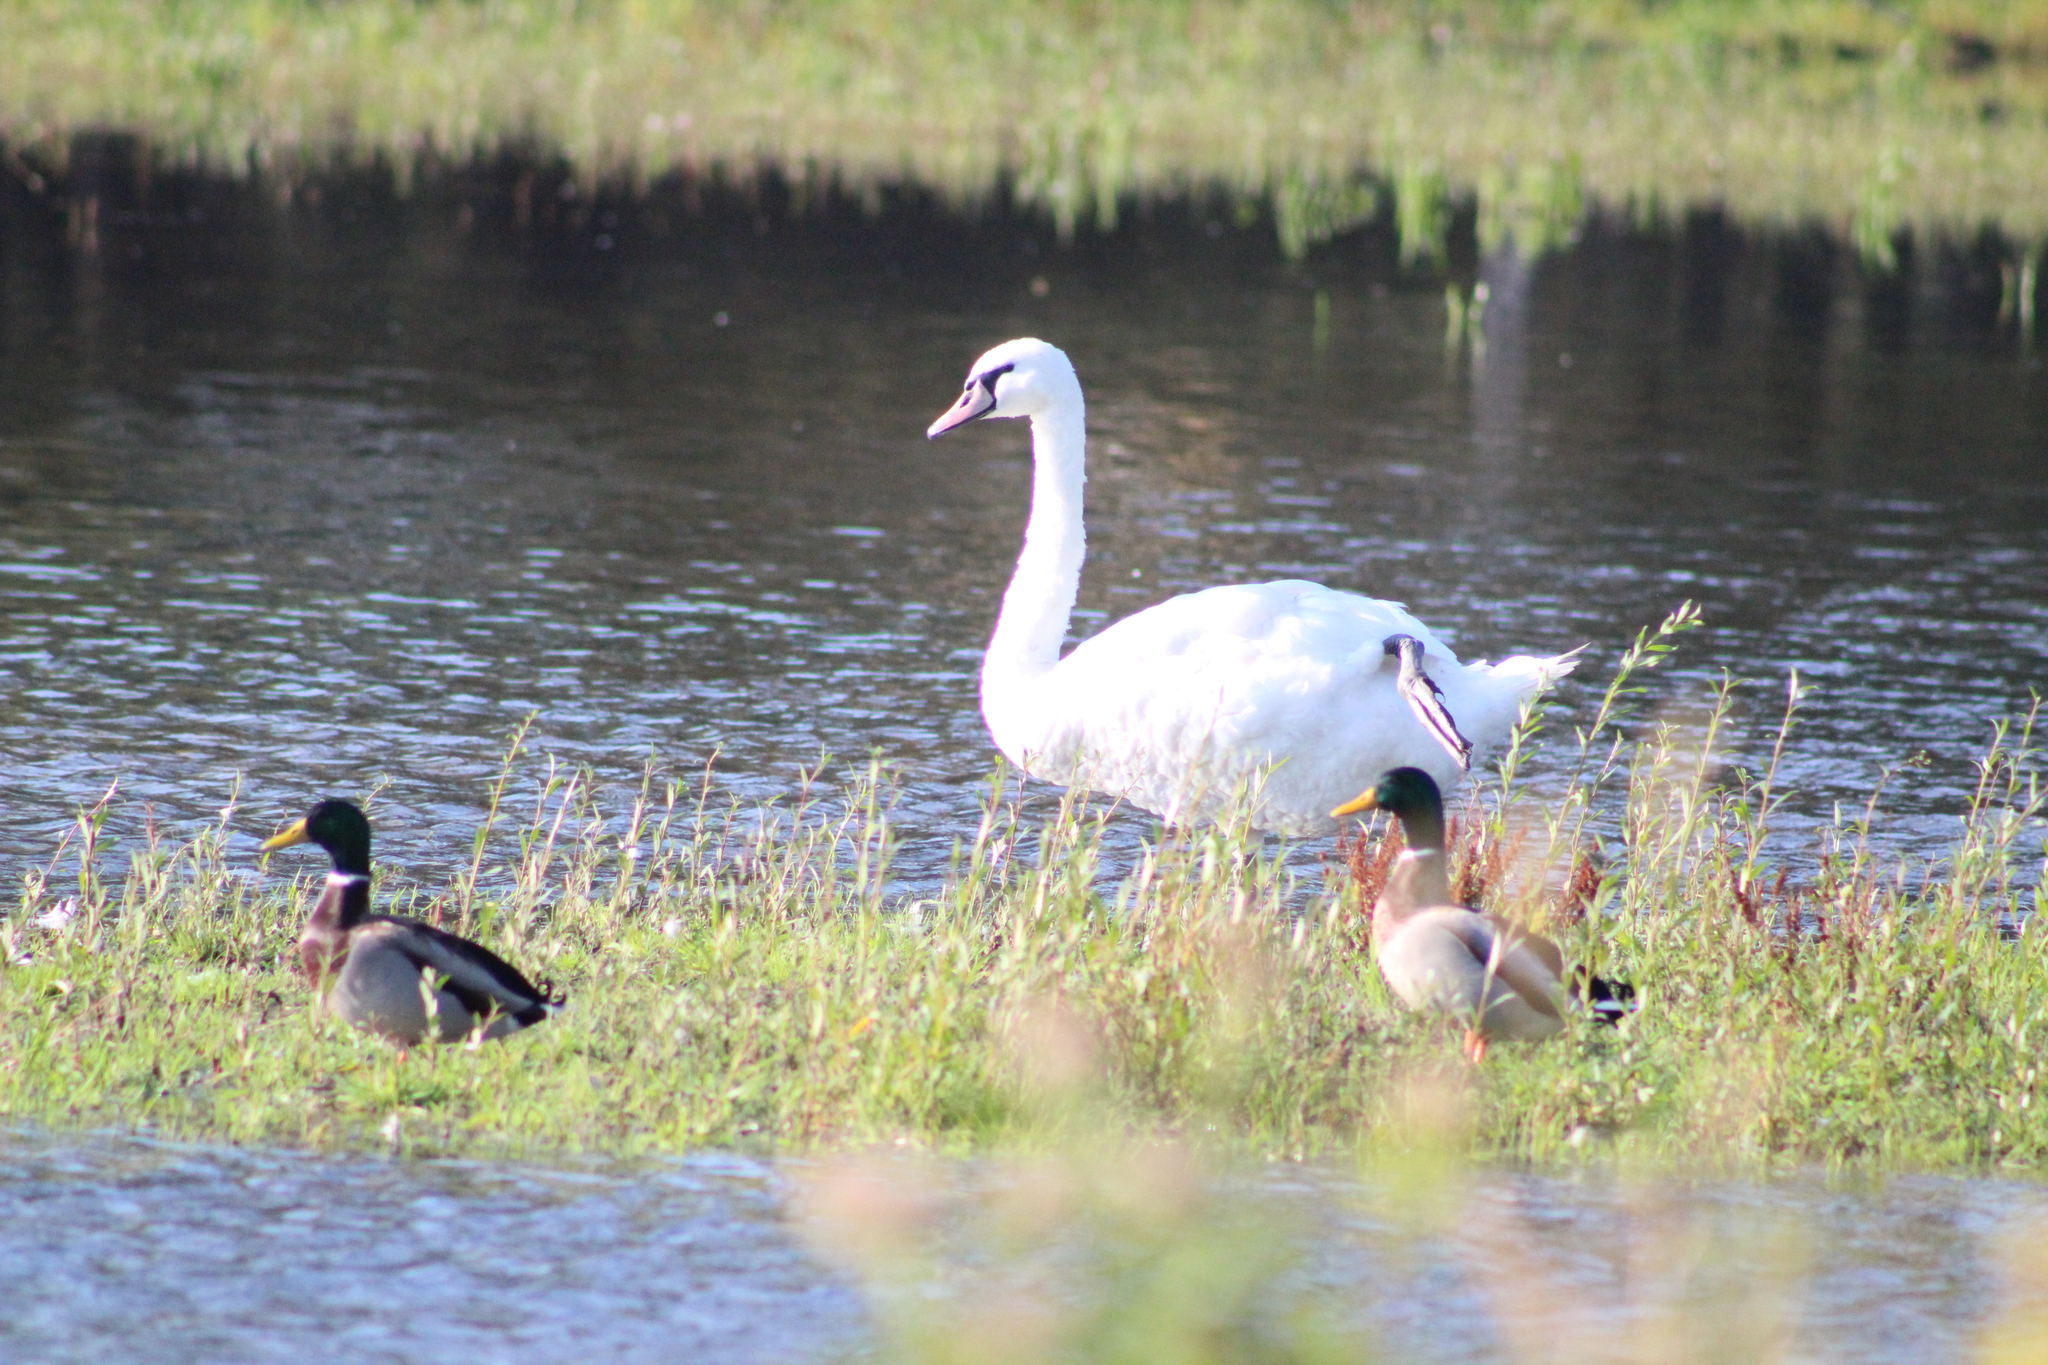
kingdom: Animalia
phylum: Chordata
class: Aves
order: Anseriformes
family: Anatidae
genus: Cygnus
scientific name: Cygnus olor
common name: Mute swan
